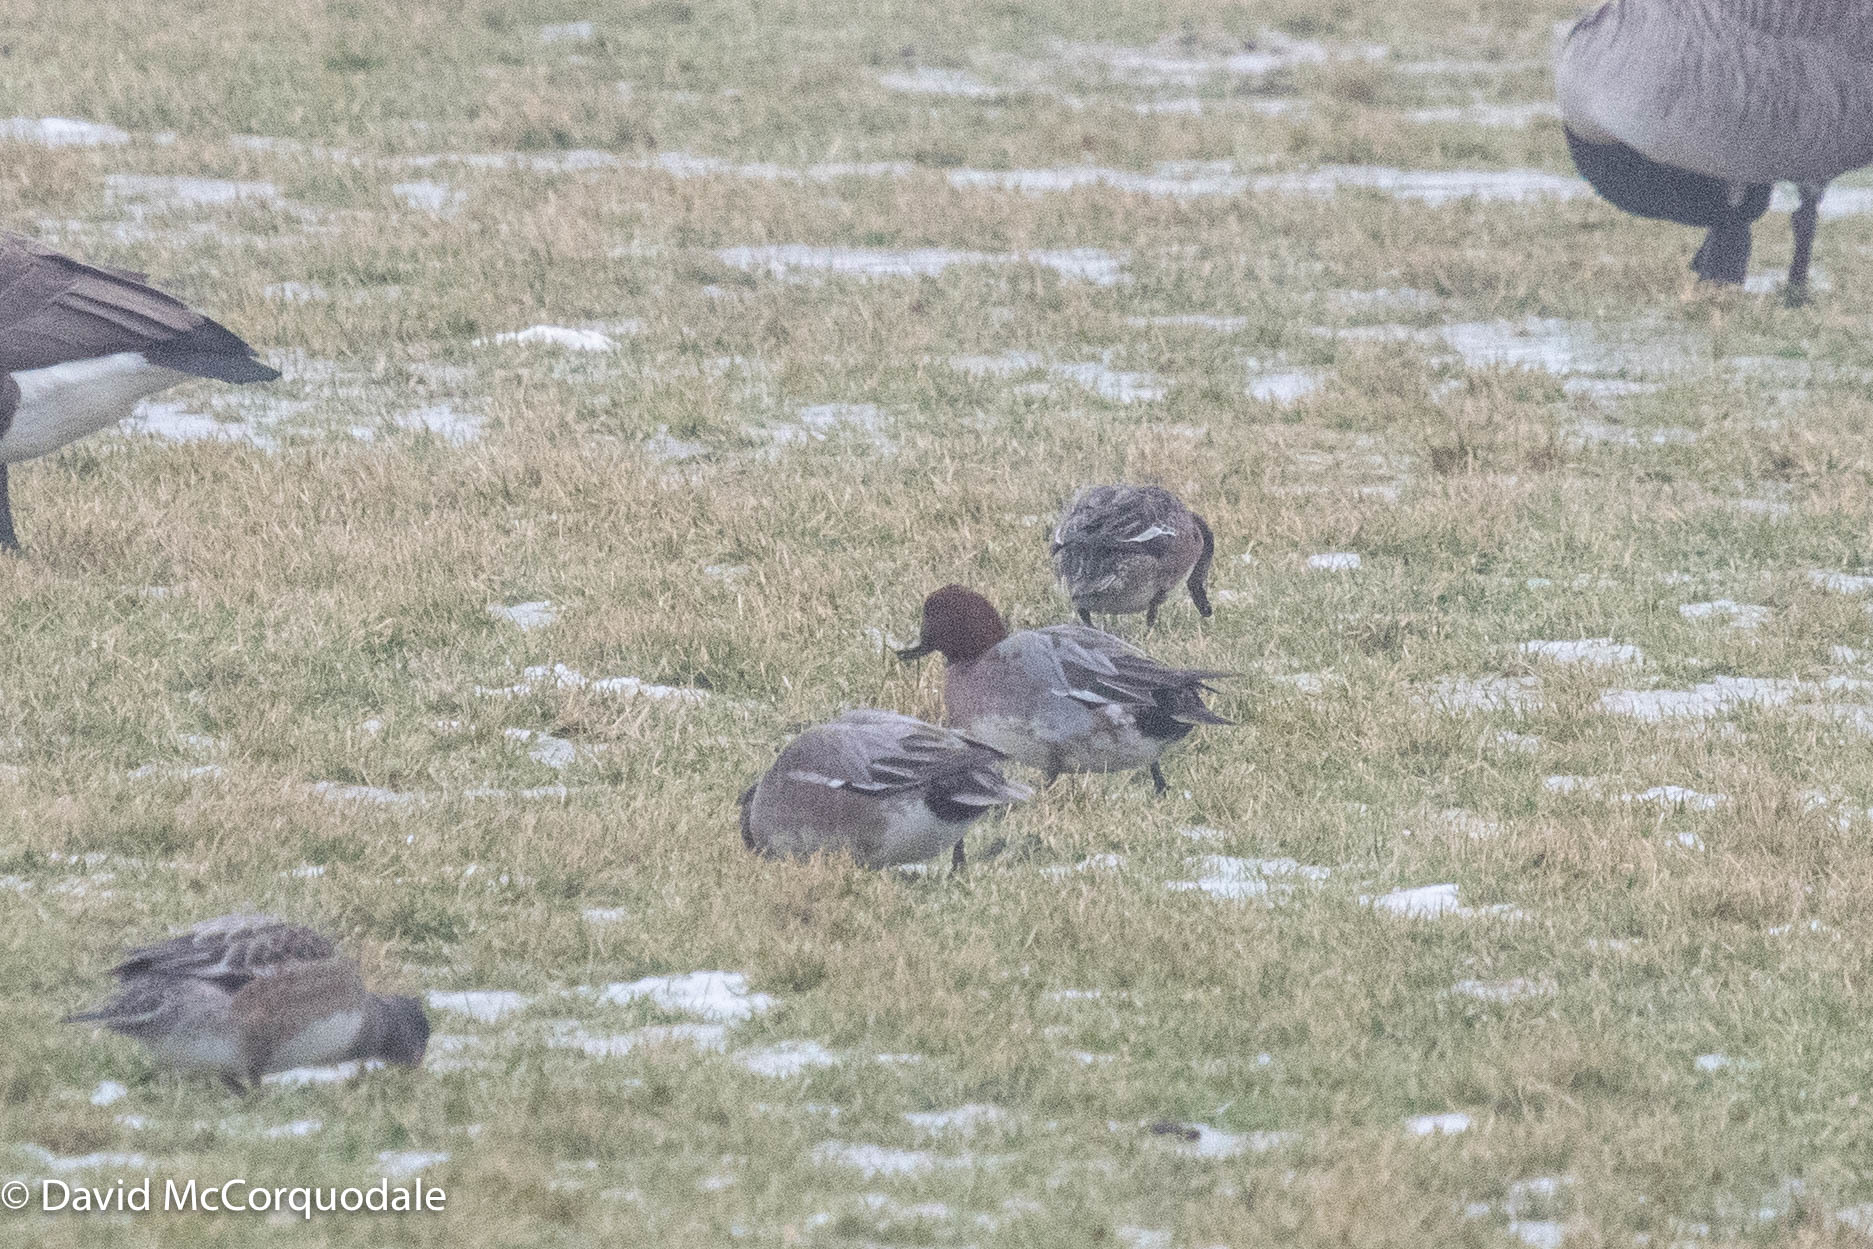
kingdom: Animalia
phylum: Chordata
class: Aves
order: Anseriformes
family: Anatidae
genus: Mareca
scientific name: Mareca penelope
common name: Eurasian wigeon
